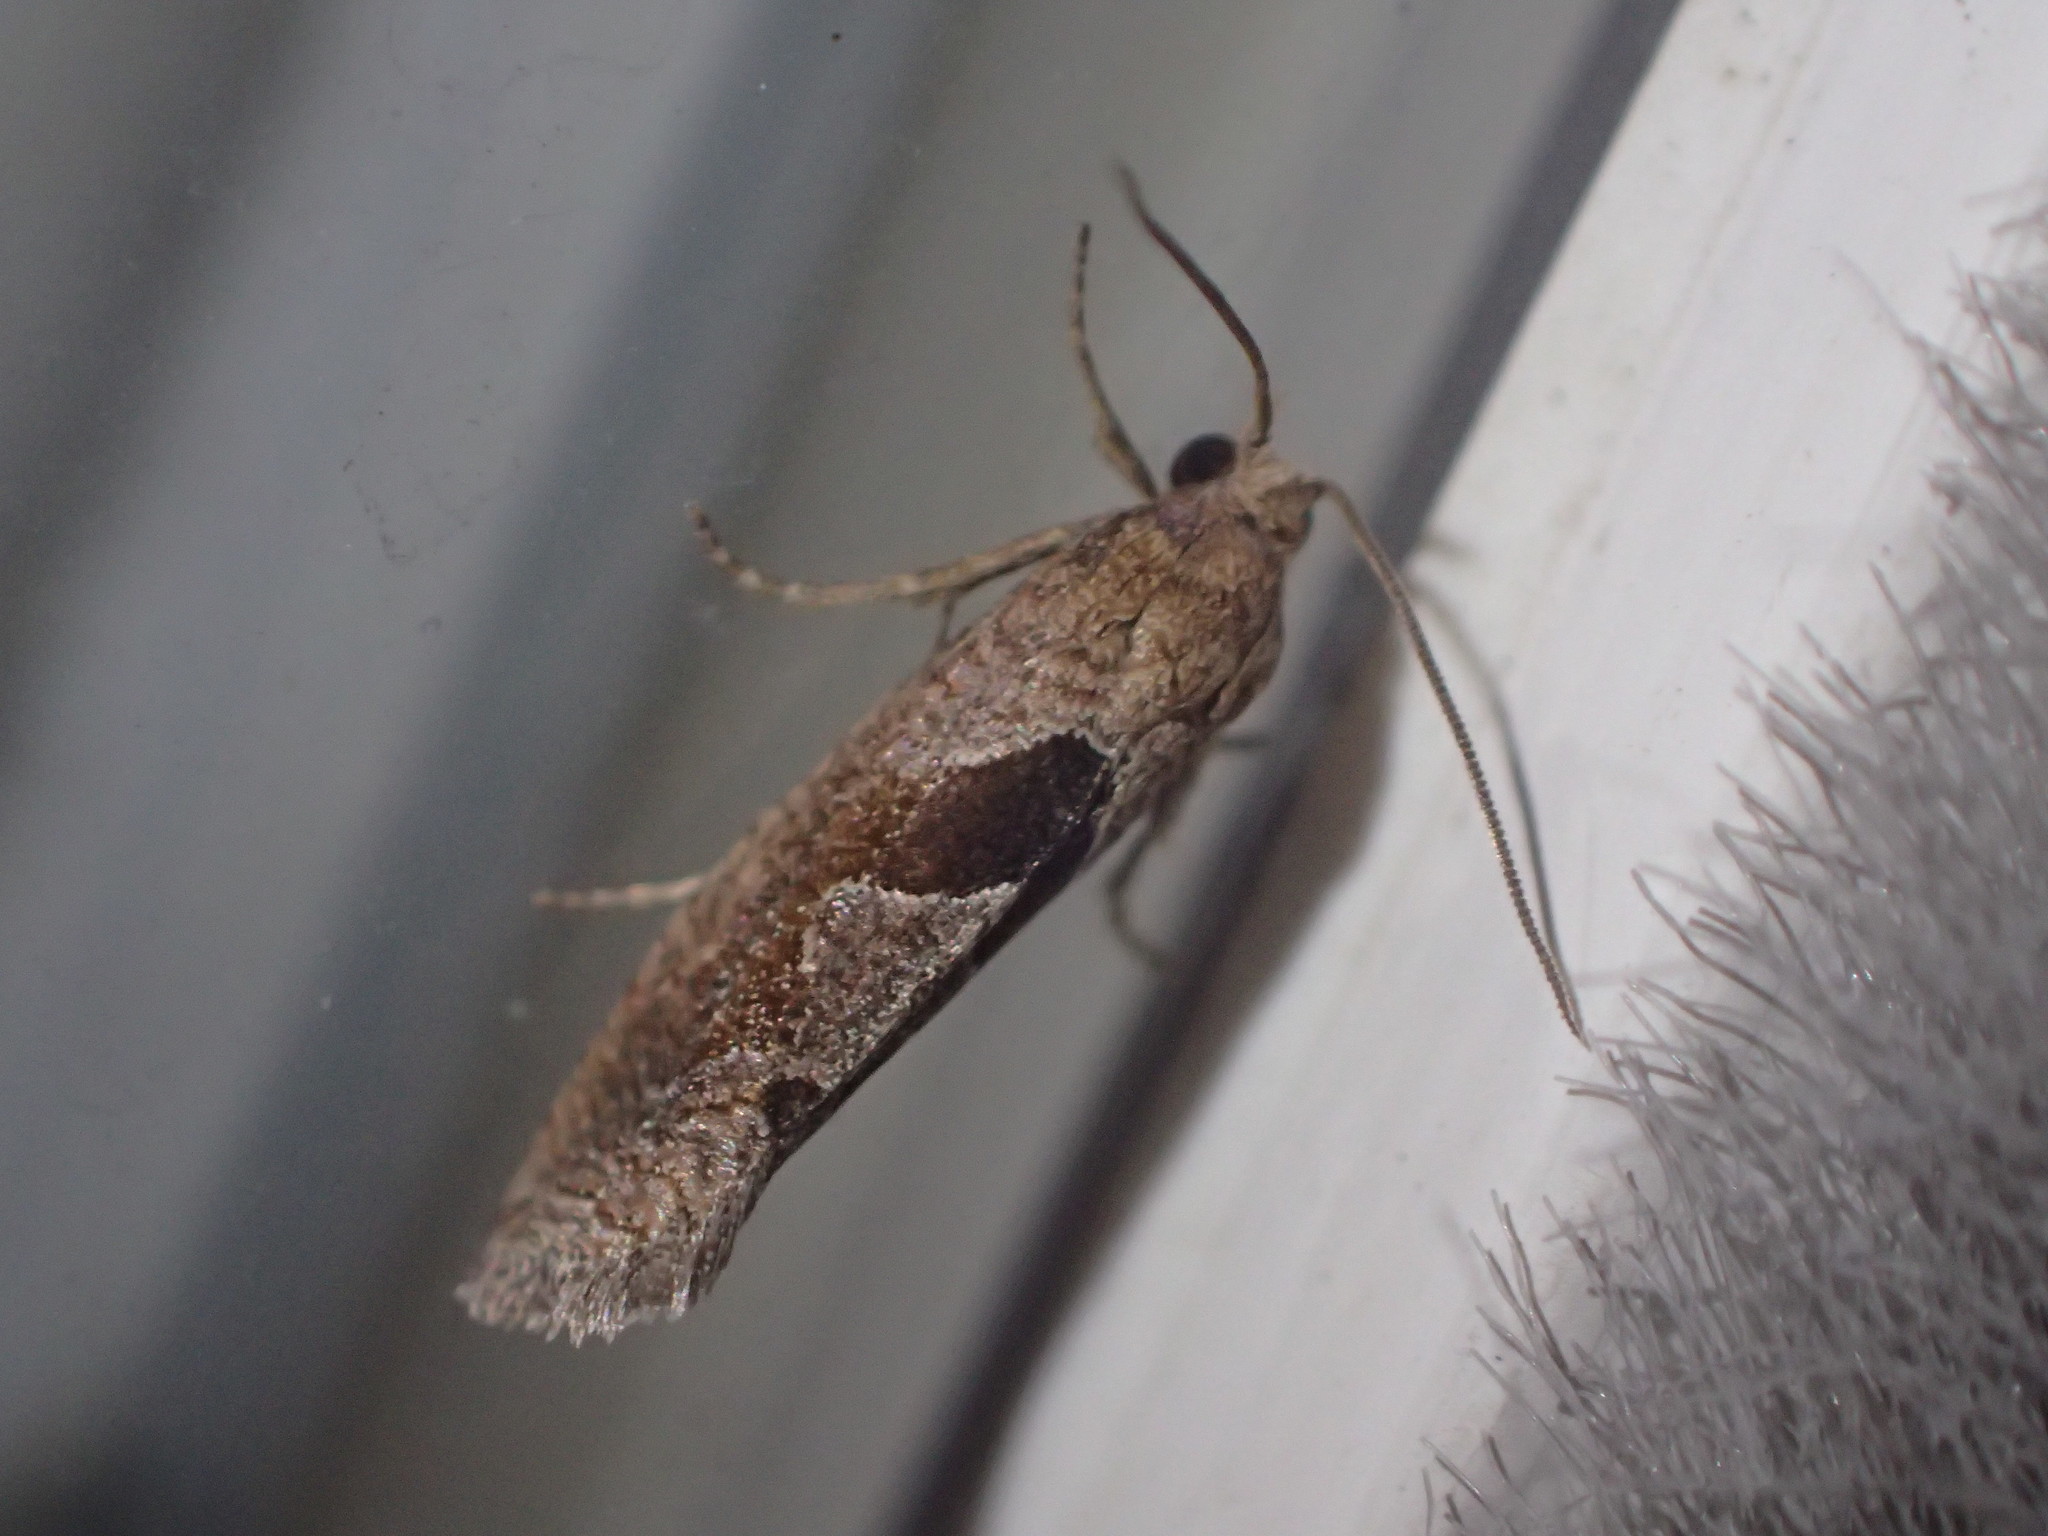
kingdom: Animalia
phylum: Arthropoda
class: Insecta
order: Lepidoptera
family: Tortricidae
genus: Pelochrista
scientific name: Pelochrista similiana
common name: Similar eucosma
